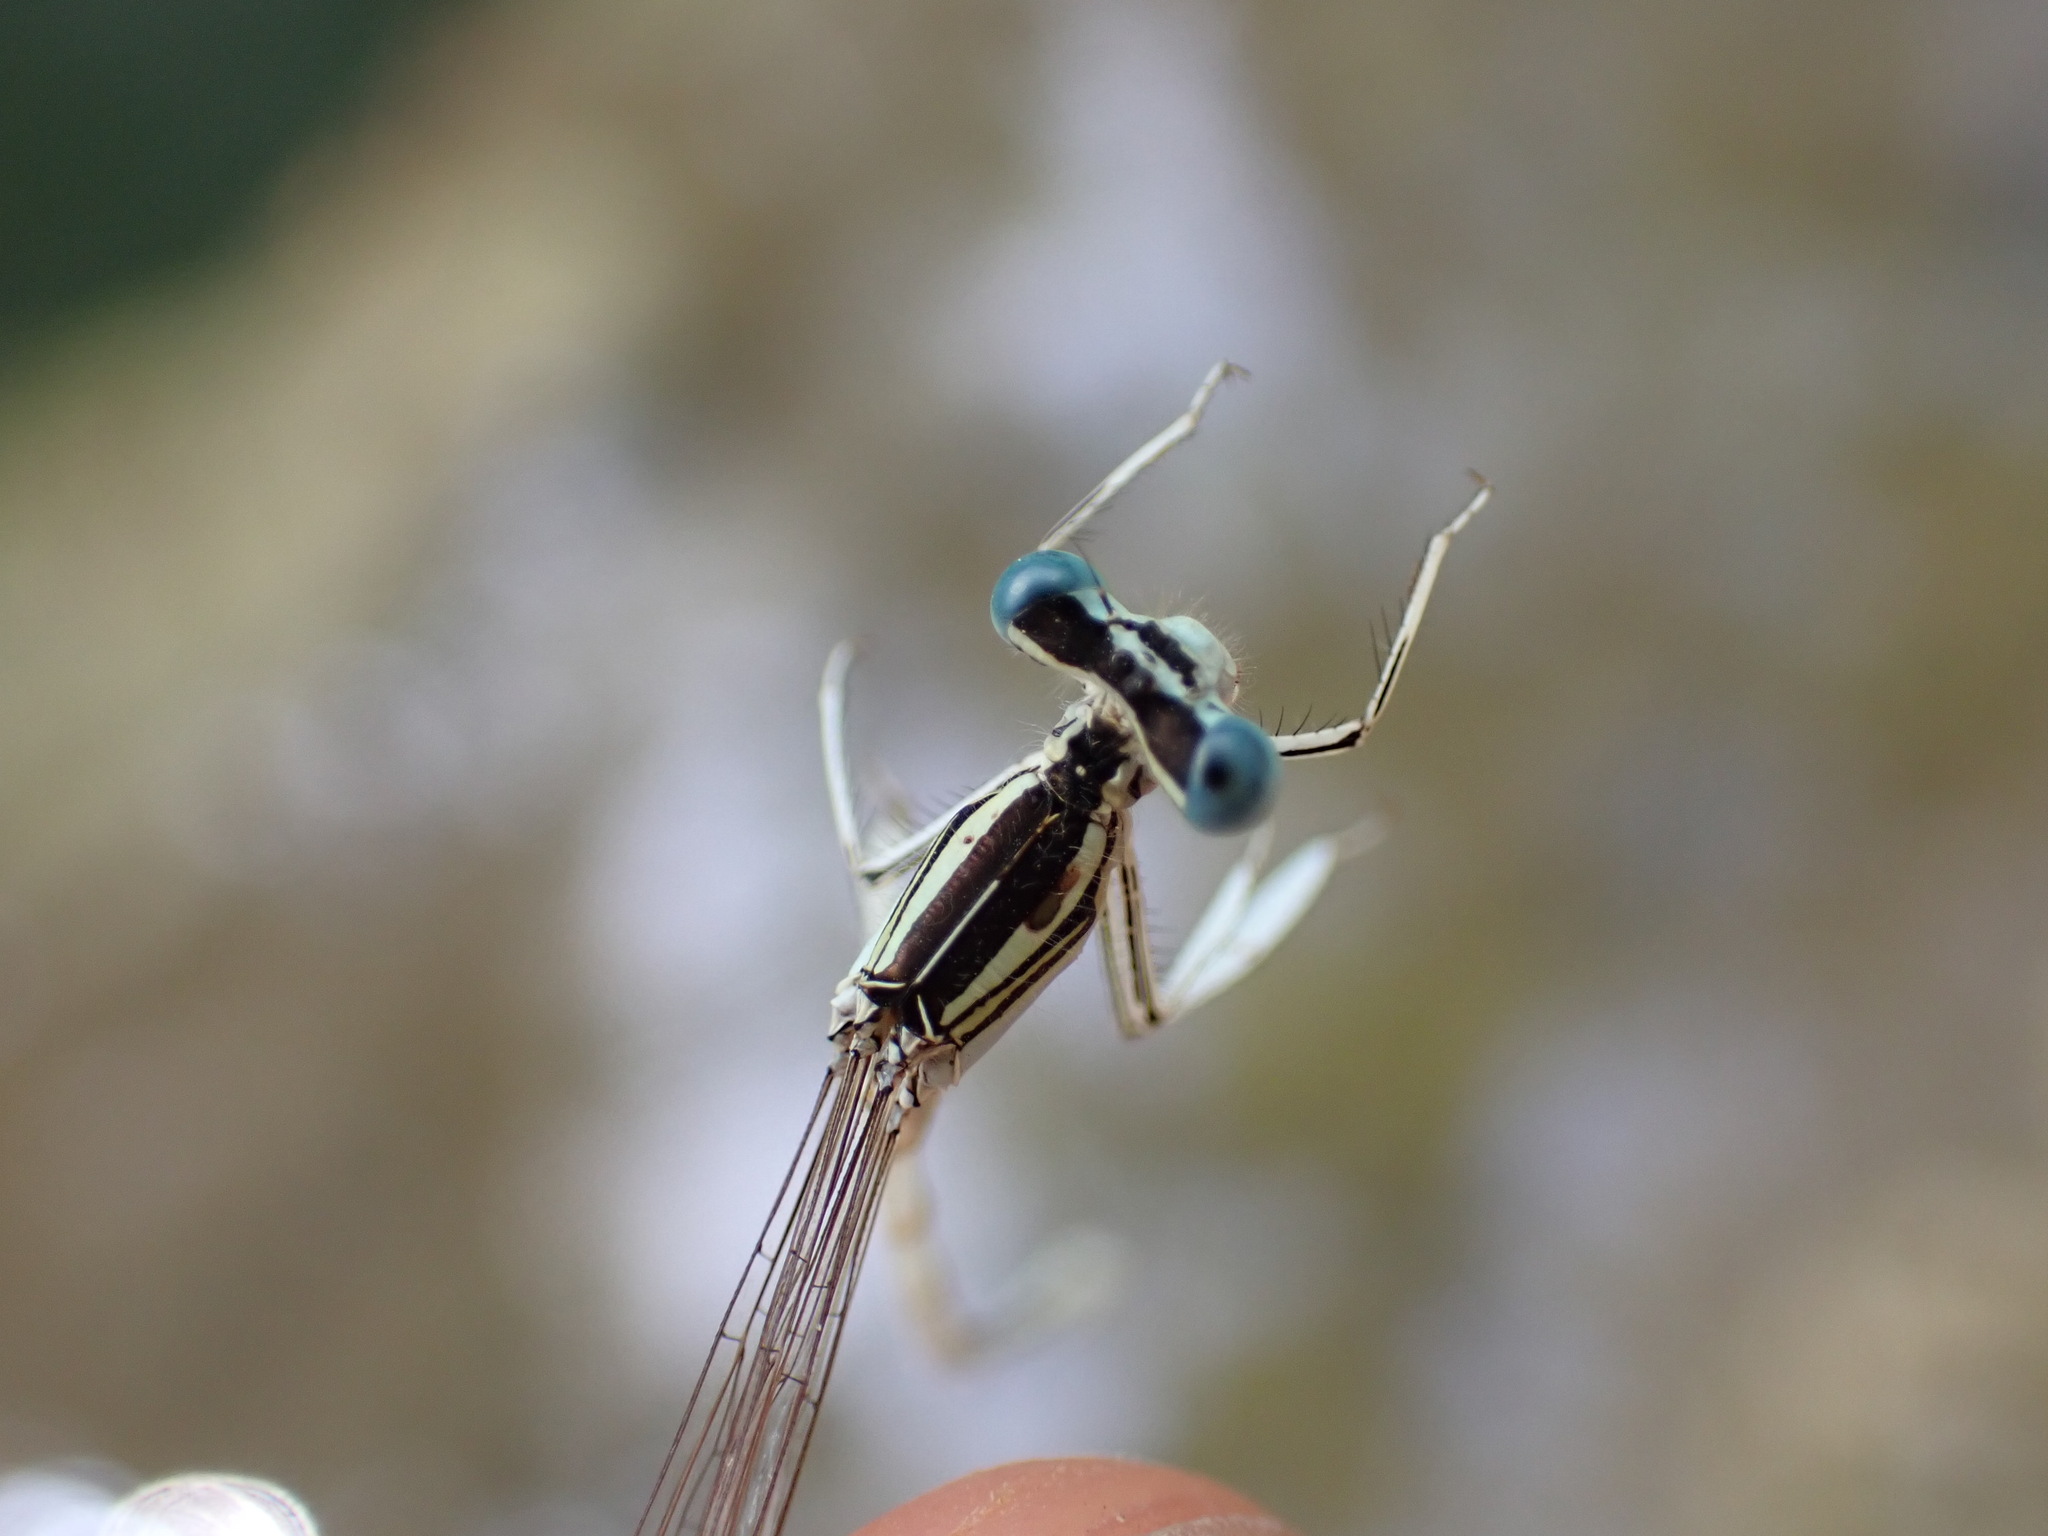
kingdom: Animalia
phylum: Arthropoda
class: Insecta
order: Odonata
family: Platycnemididae
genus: Platycnemis
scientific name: Platycnemis latipes
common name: White featherleg
